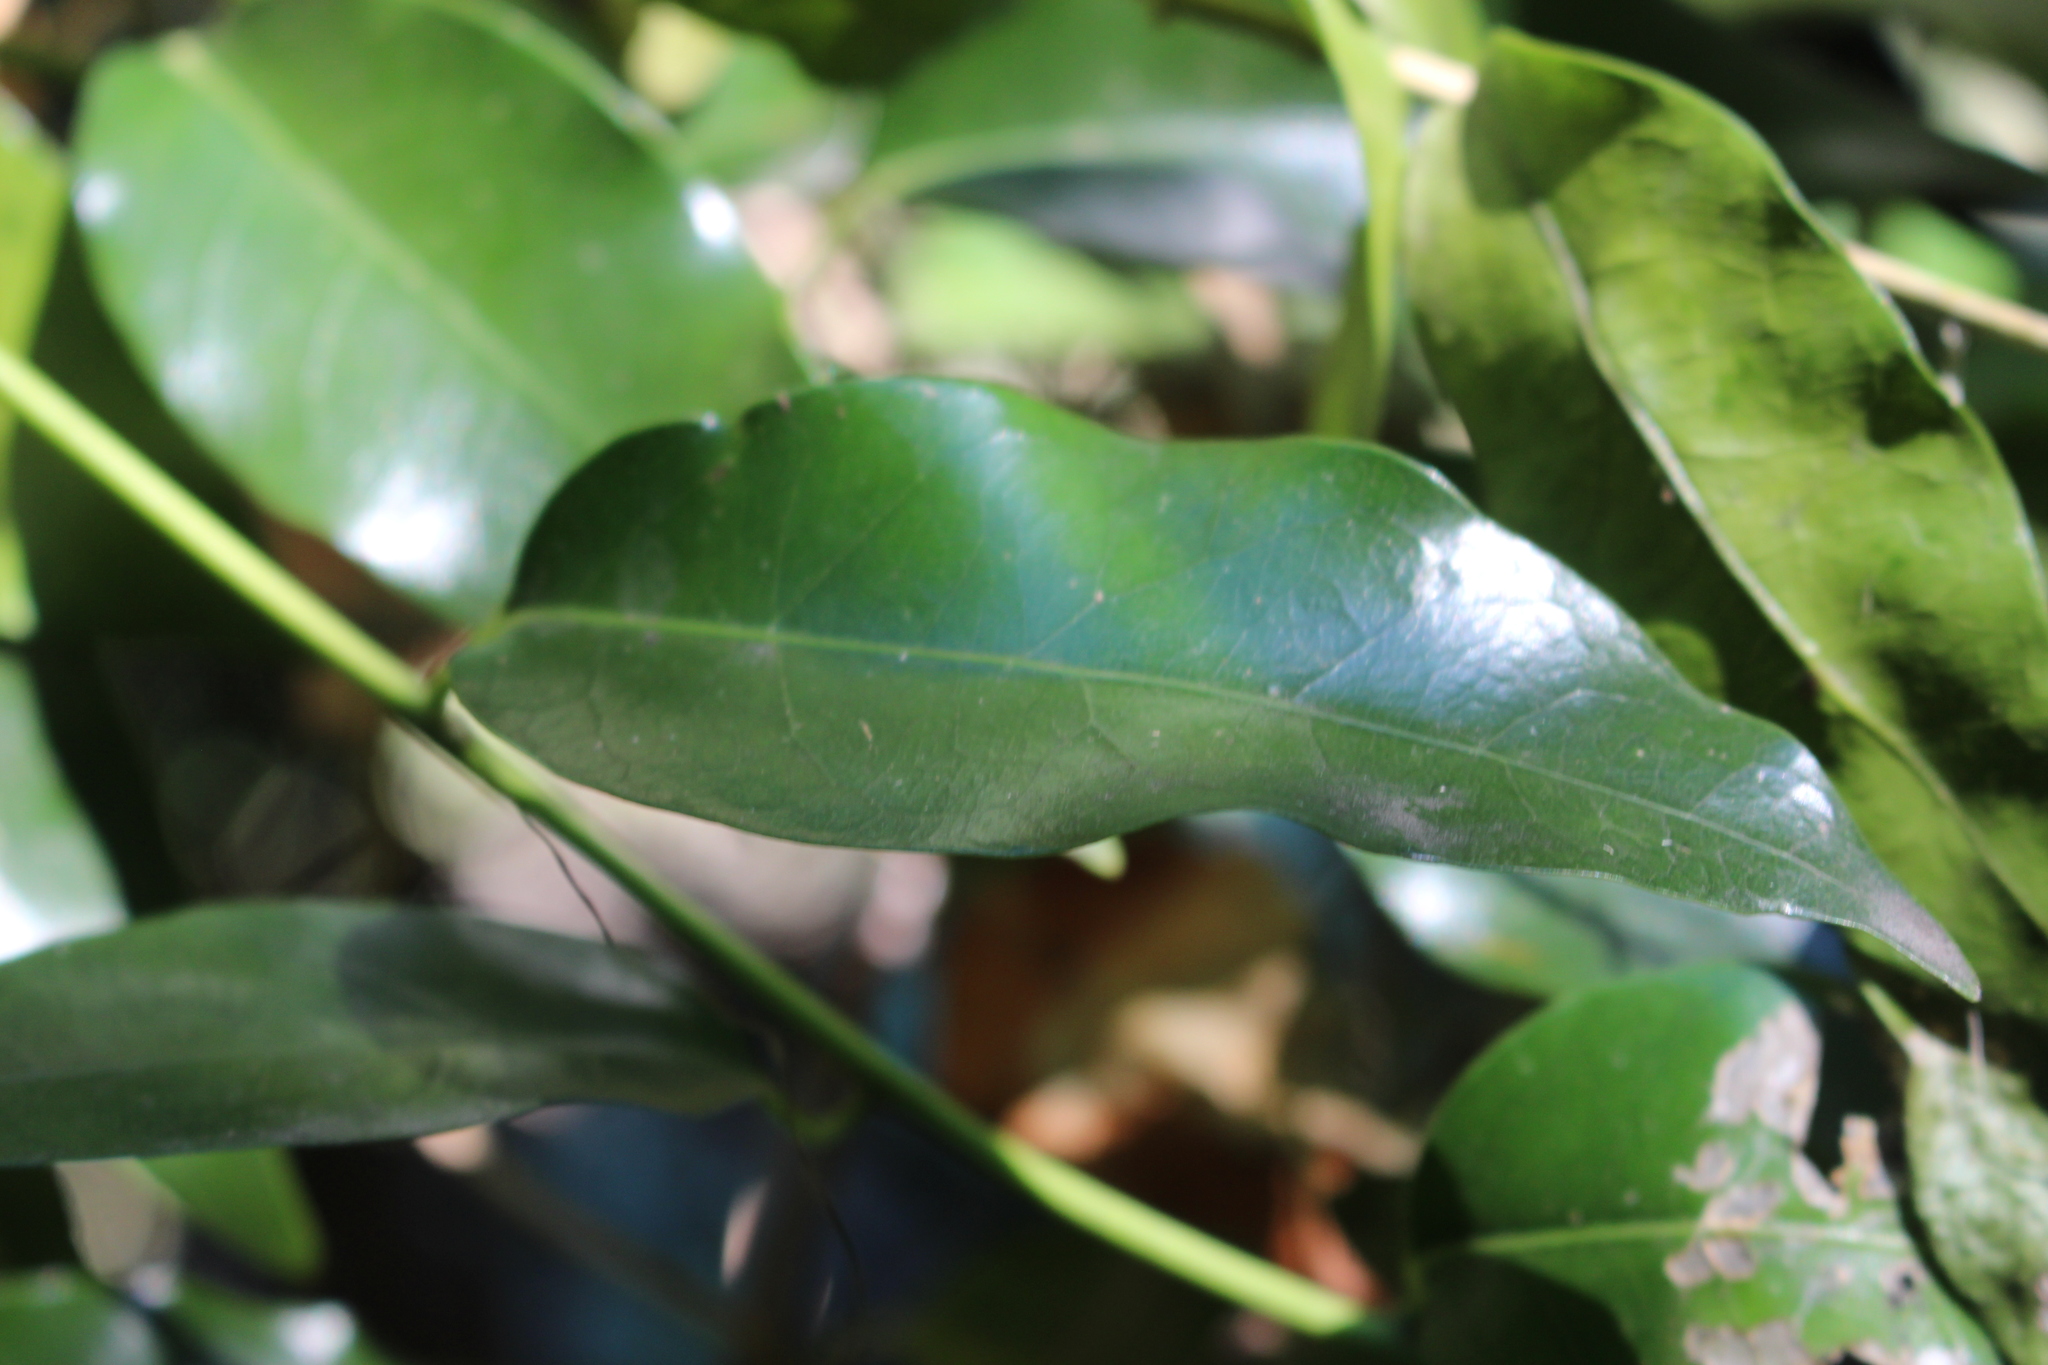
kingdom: Plantae
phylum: Tracheophyta
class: Magnoliopsida
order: Malpighiales
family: Passifloraceae
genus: Passiflora
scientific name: Passiflora tetrandra
